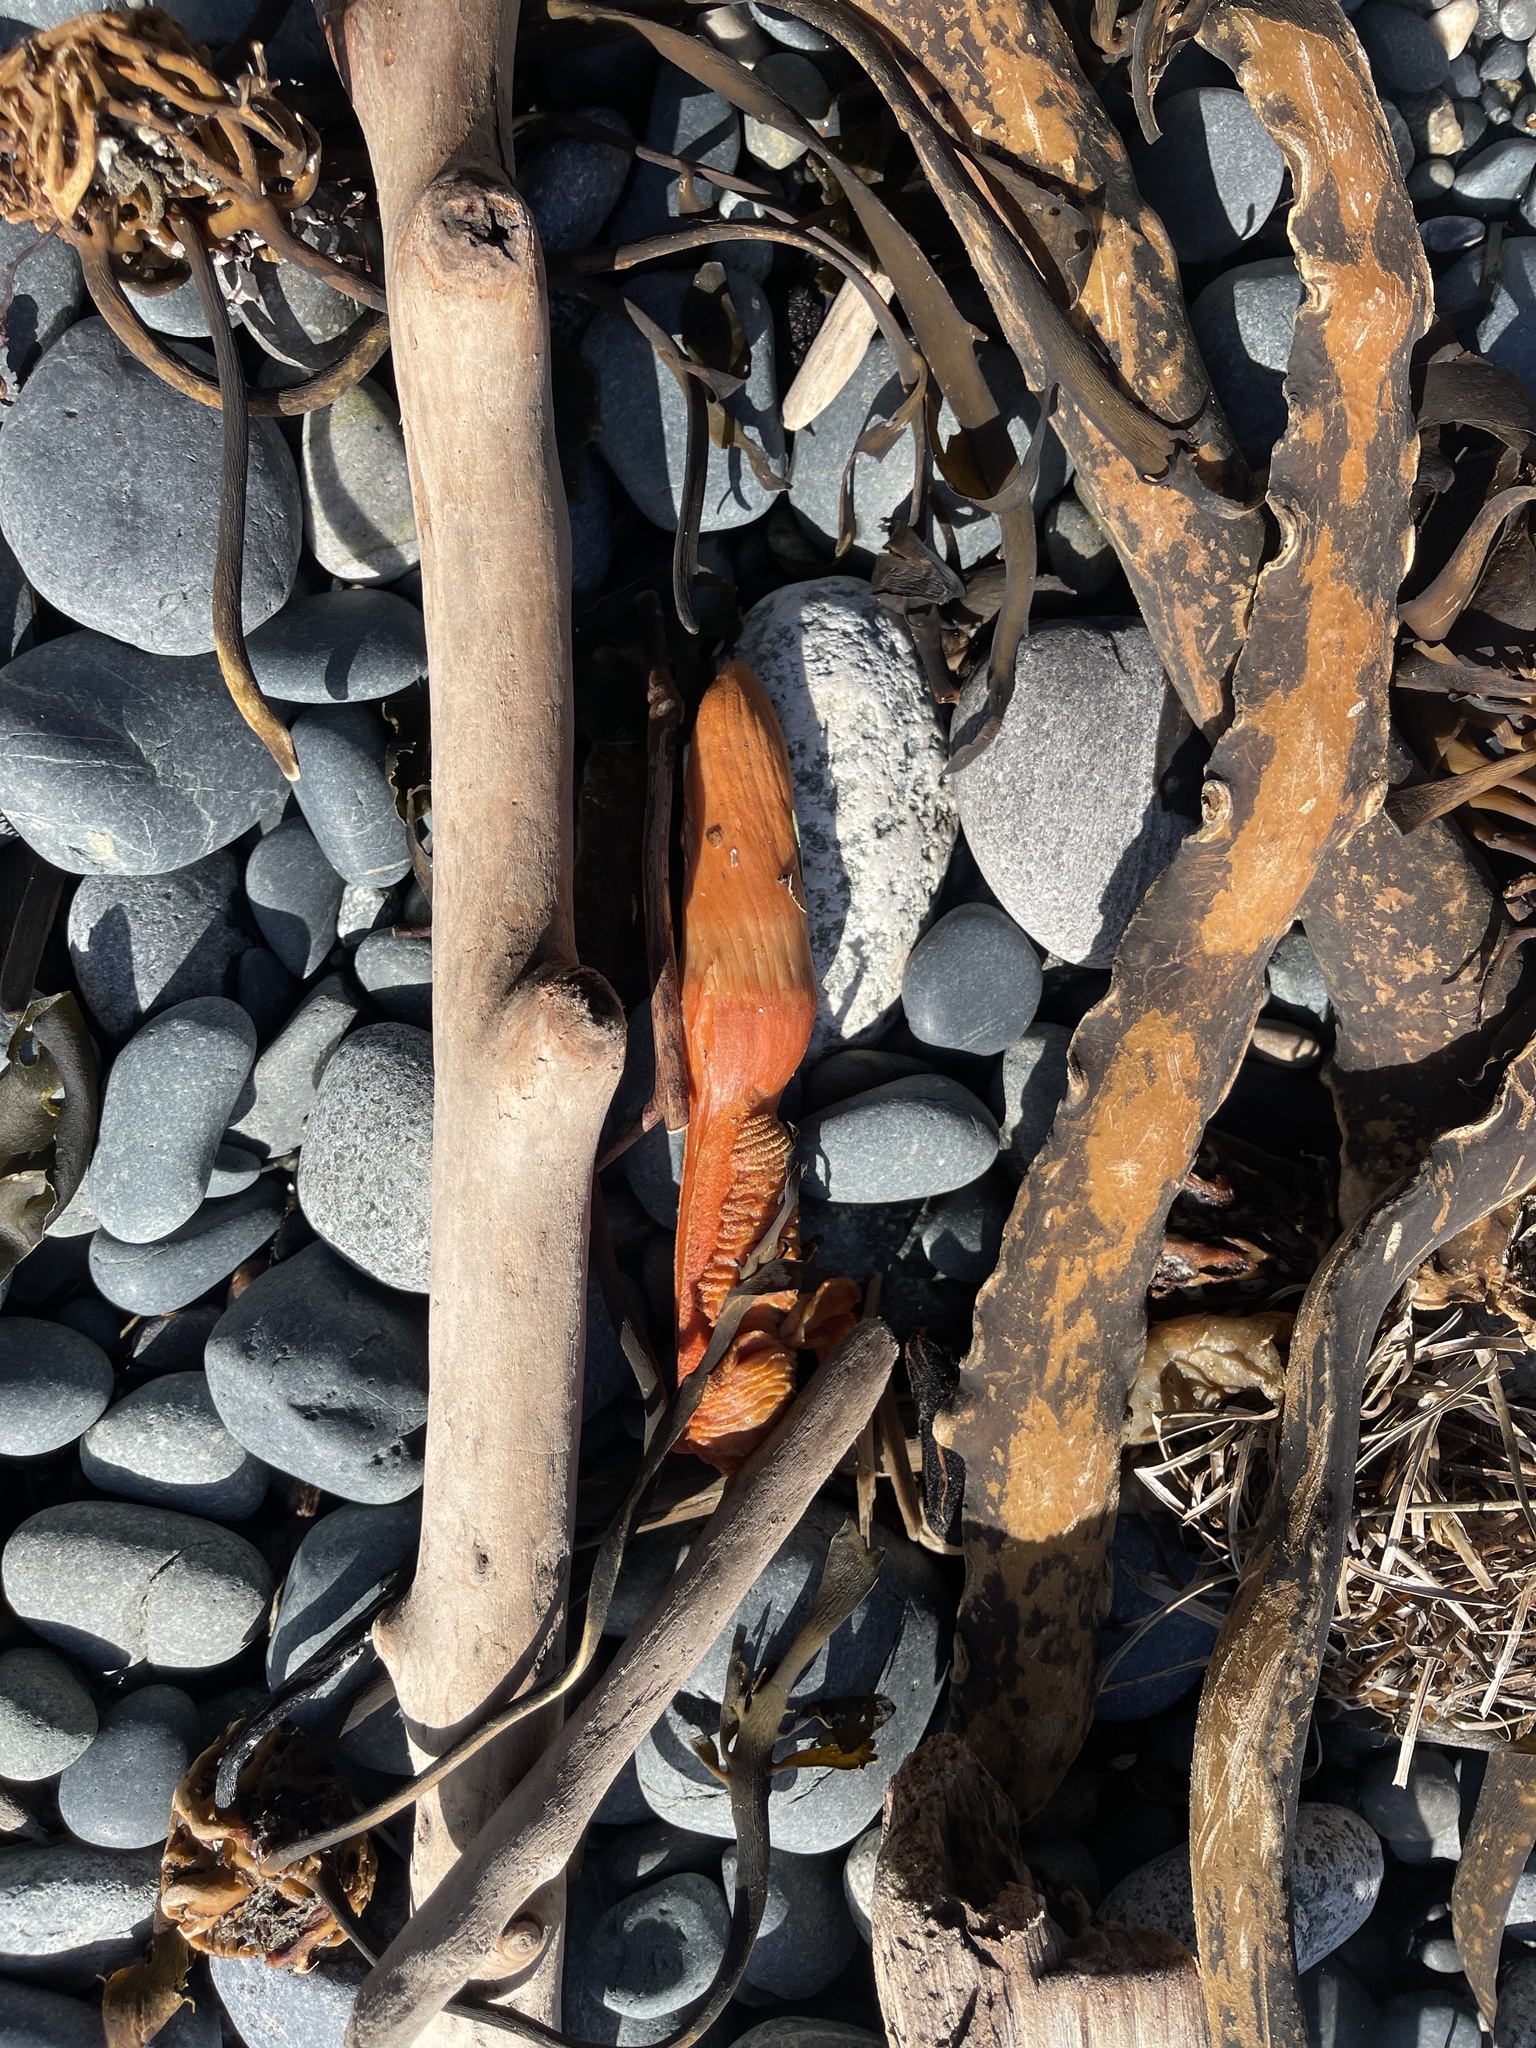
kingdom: Animalia
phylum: Cnidaria
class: Anthozoa
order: Scleralcyonacea
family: Pennatulidae
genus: Ptilosarcus
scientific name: Ptilosarcus gurneyi
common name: Gurney's sea pen
